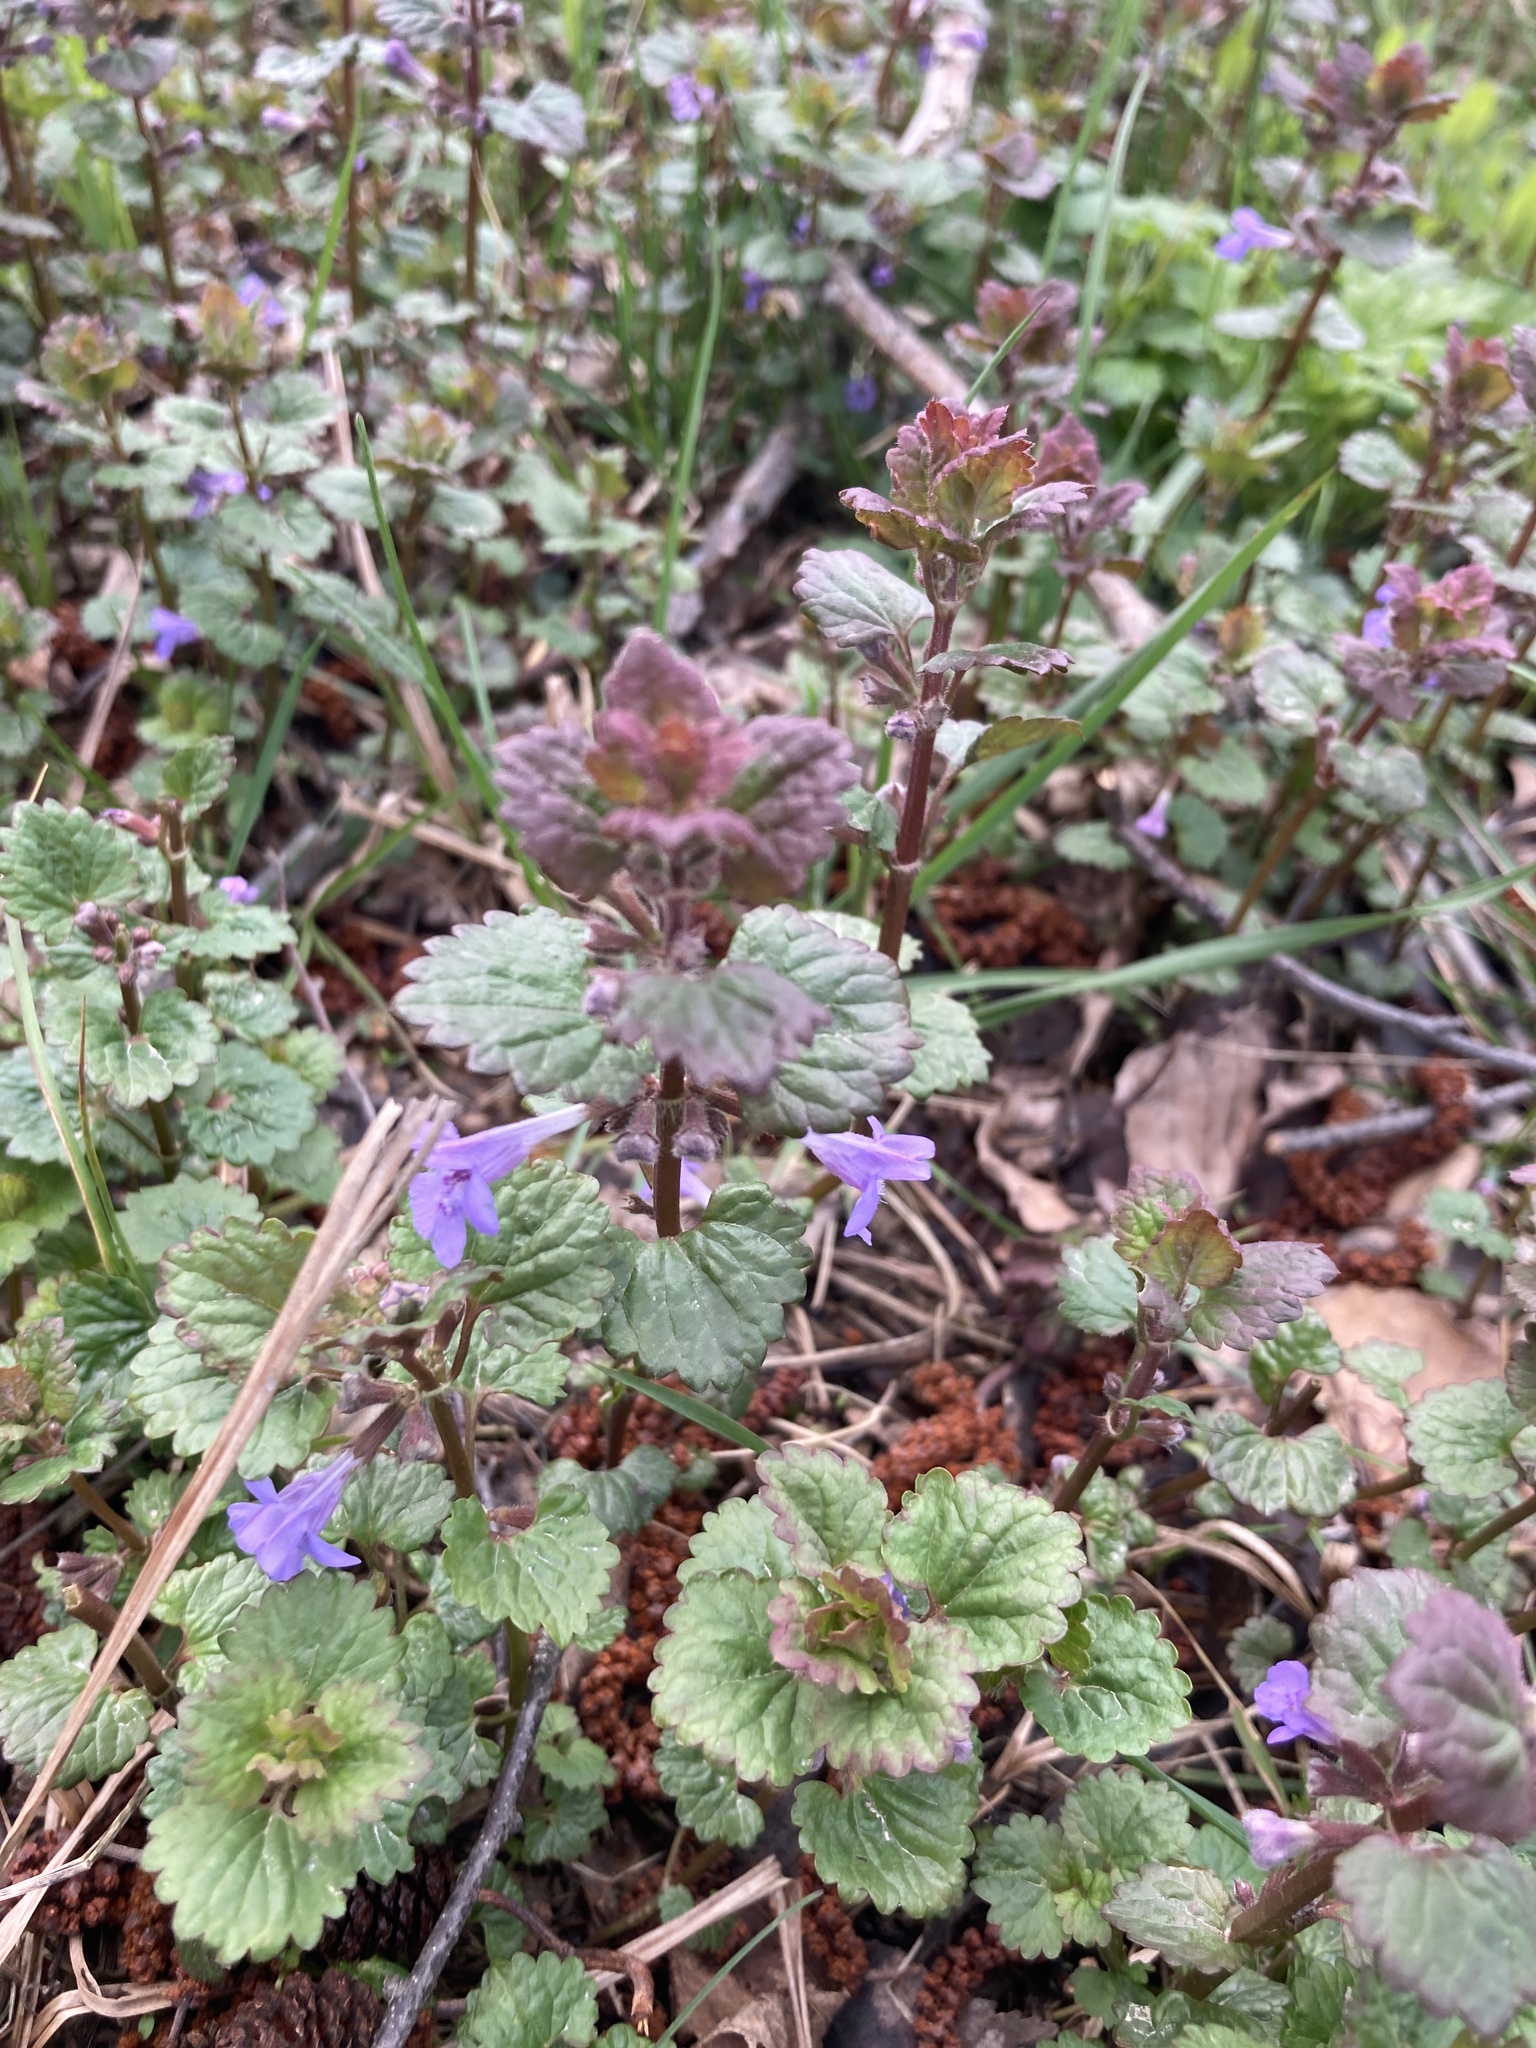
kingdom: Plantae
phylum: Tracheophyta
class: Magnoliopsida
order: Lamiales
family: Lamiaceae
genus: Glechoma
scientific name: Glechoma hederacea
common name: Ground ivy
